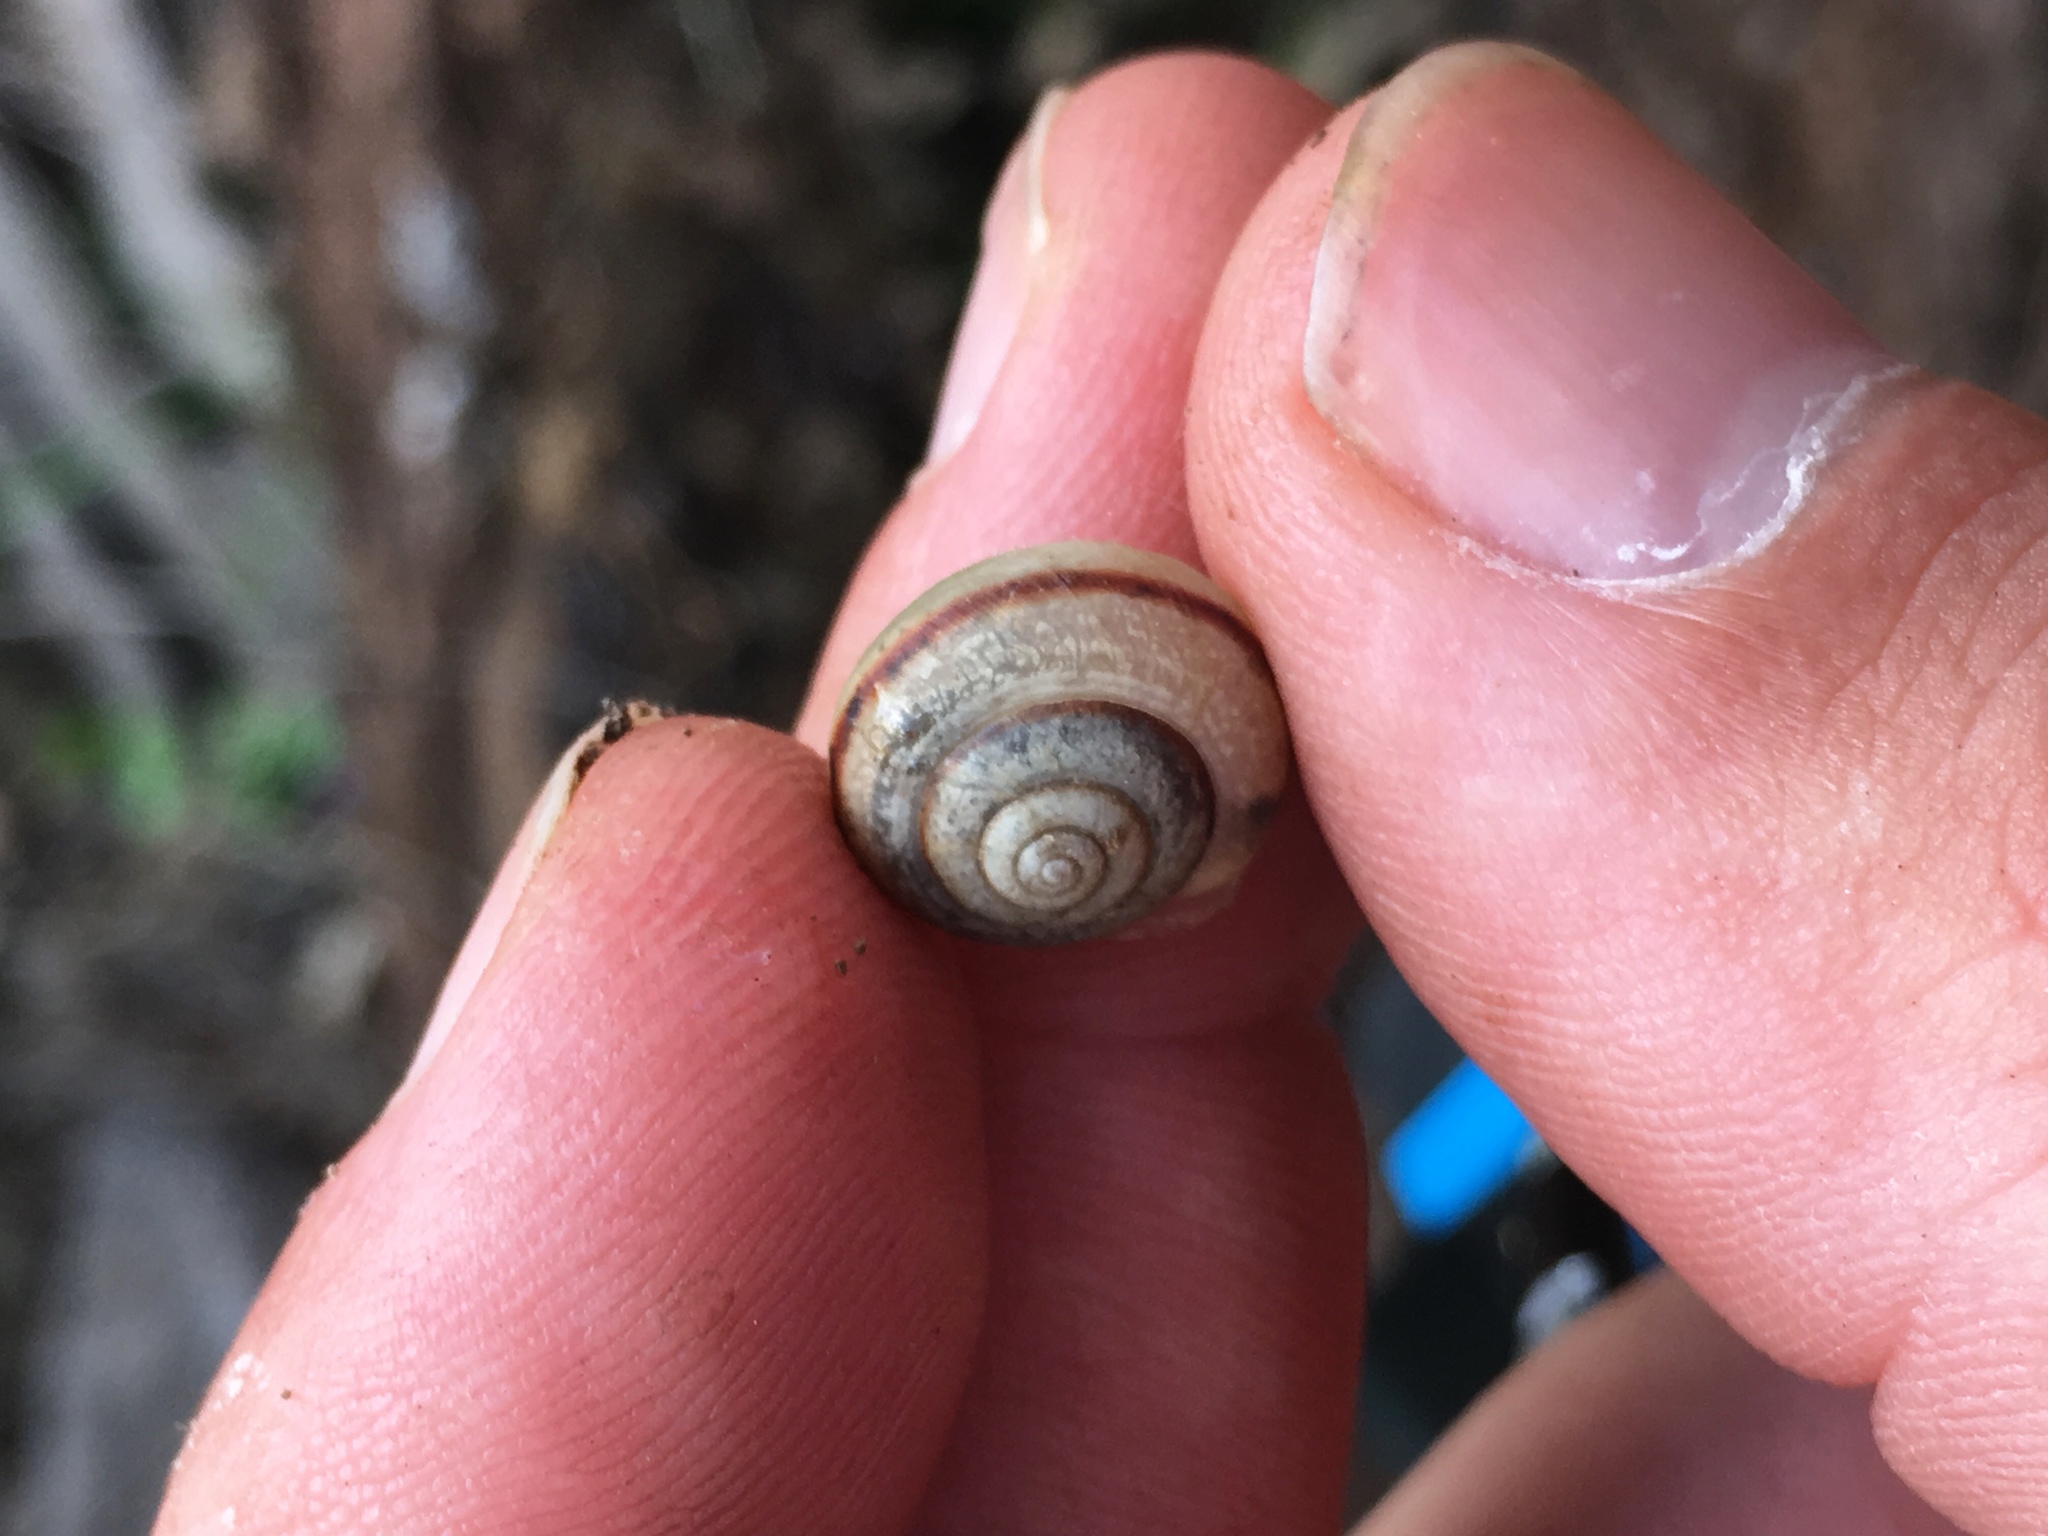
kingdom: Animalia
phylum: Mollusca
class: Gastropoda
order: Stylommatophora
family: Camaenidae
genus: Bradybaena
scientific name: Bradybaena similaris
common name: Asian trampsnail
